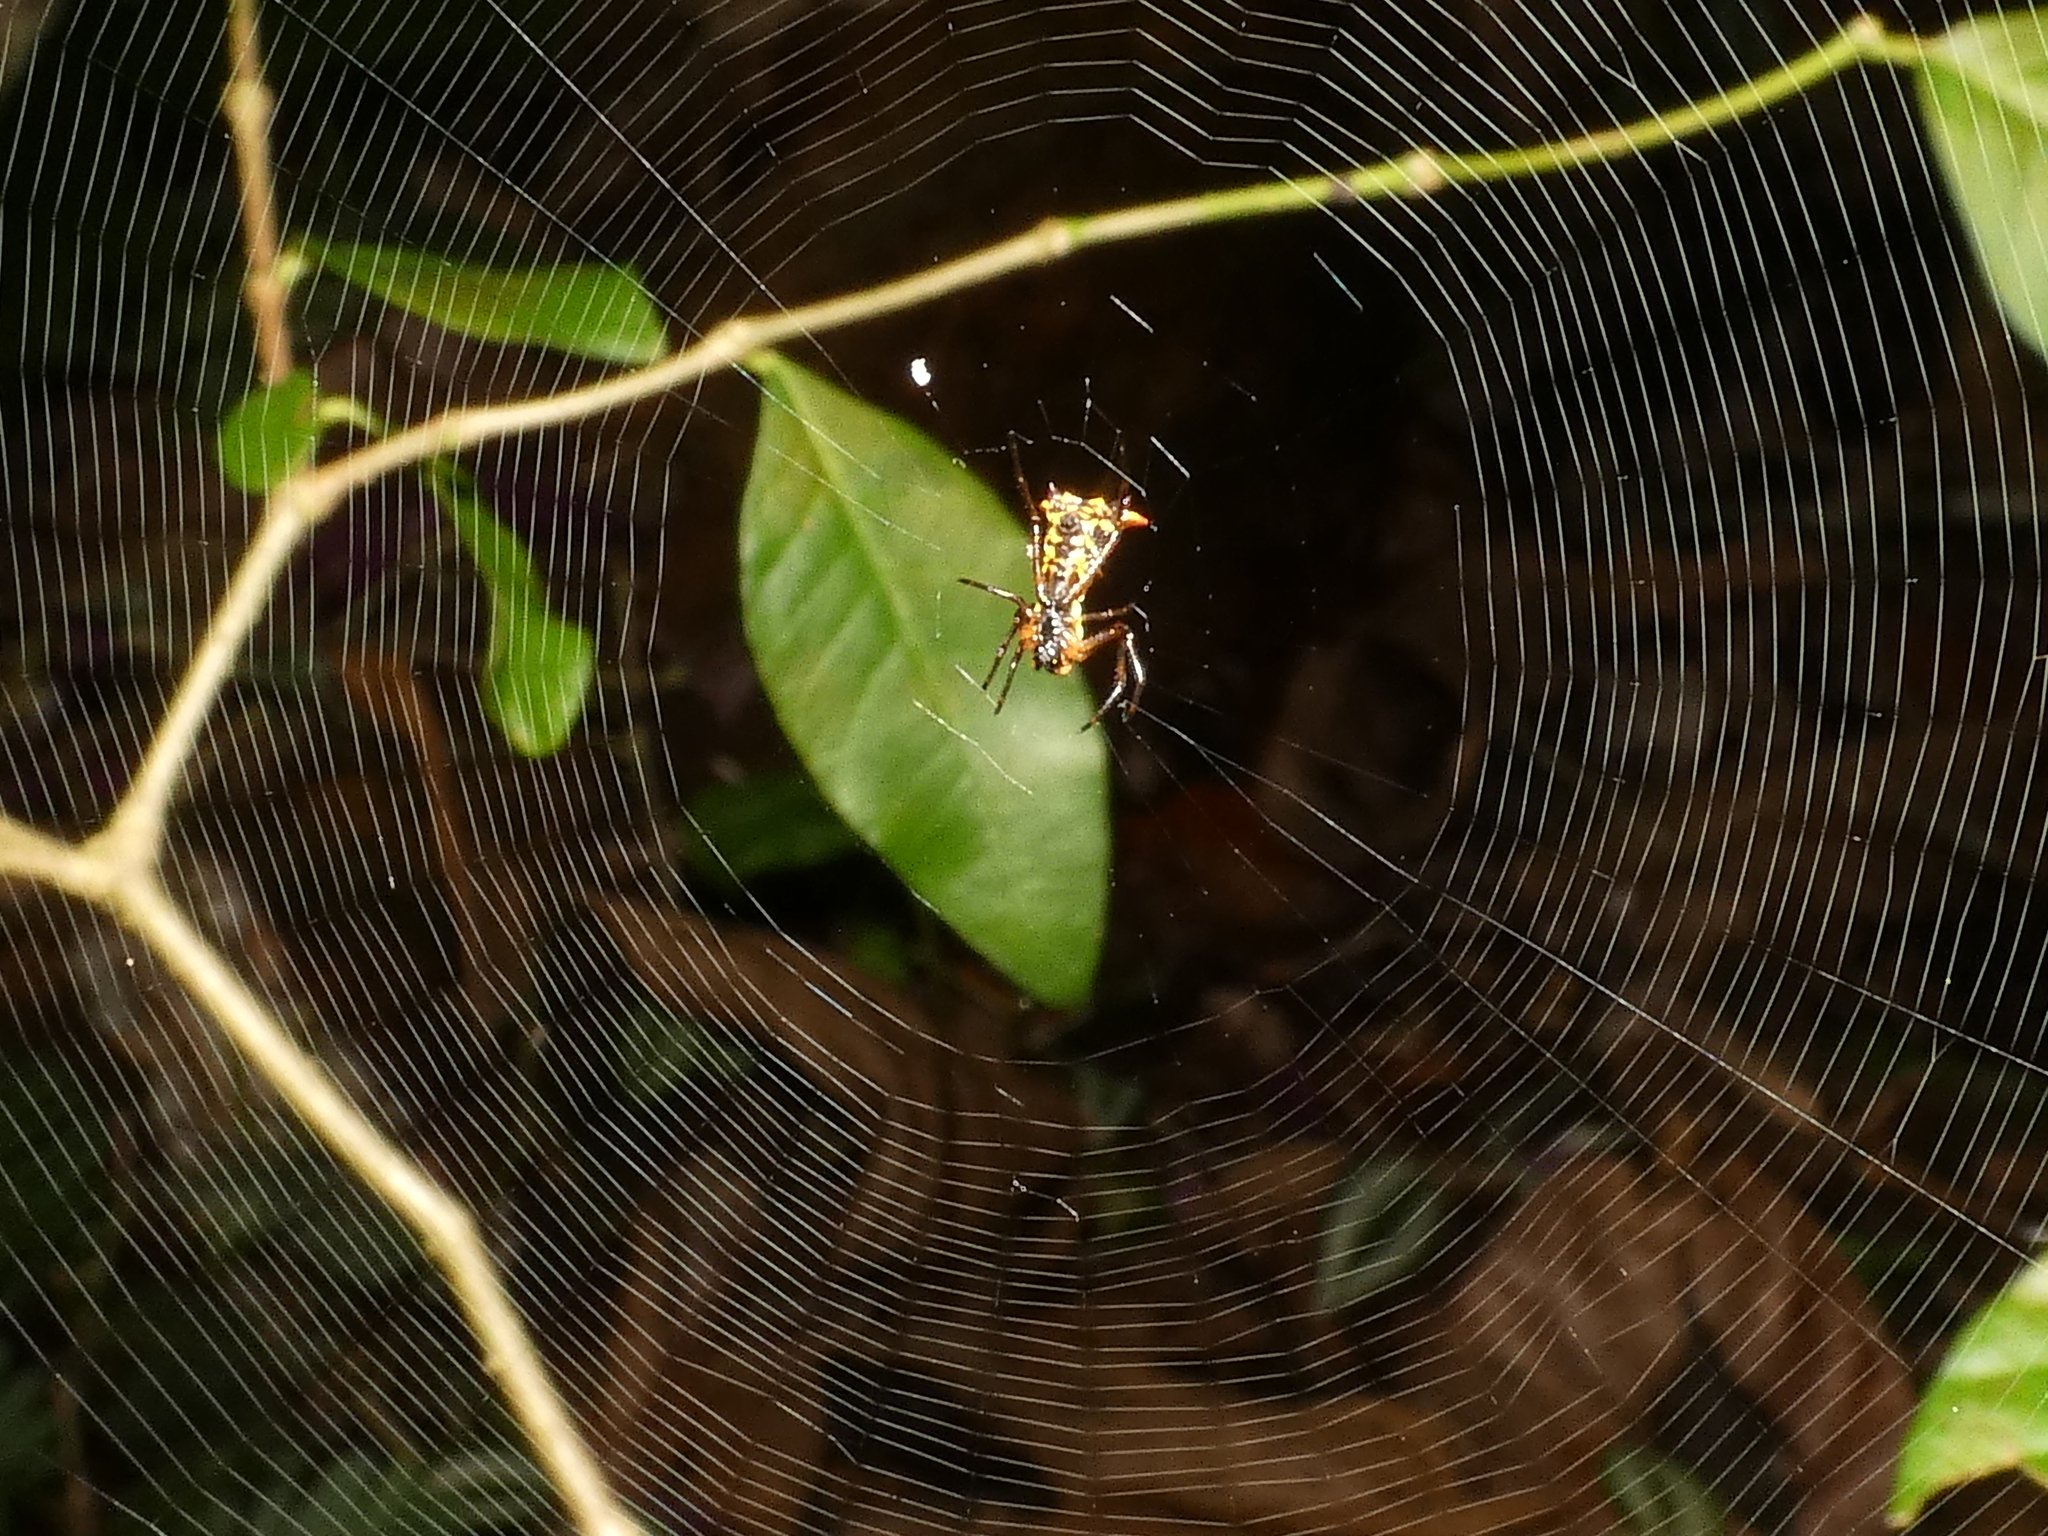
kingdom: Animalia
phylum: Arthropoda
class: Arachnida
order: Araneae
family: Araneidae
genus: Micrathena
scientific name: Micrathena fissispina
